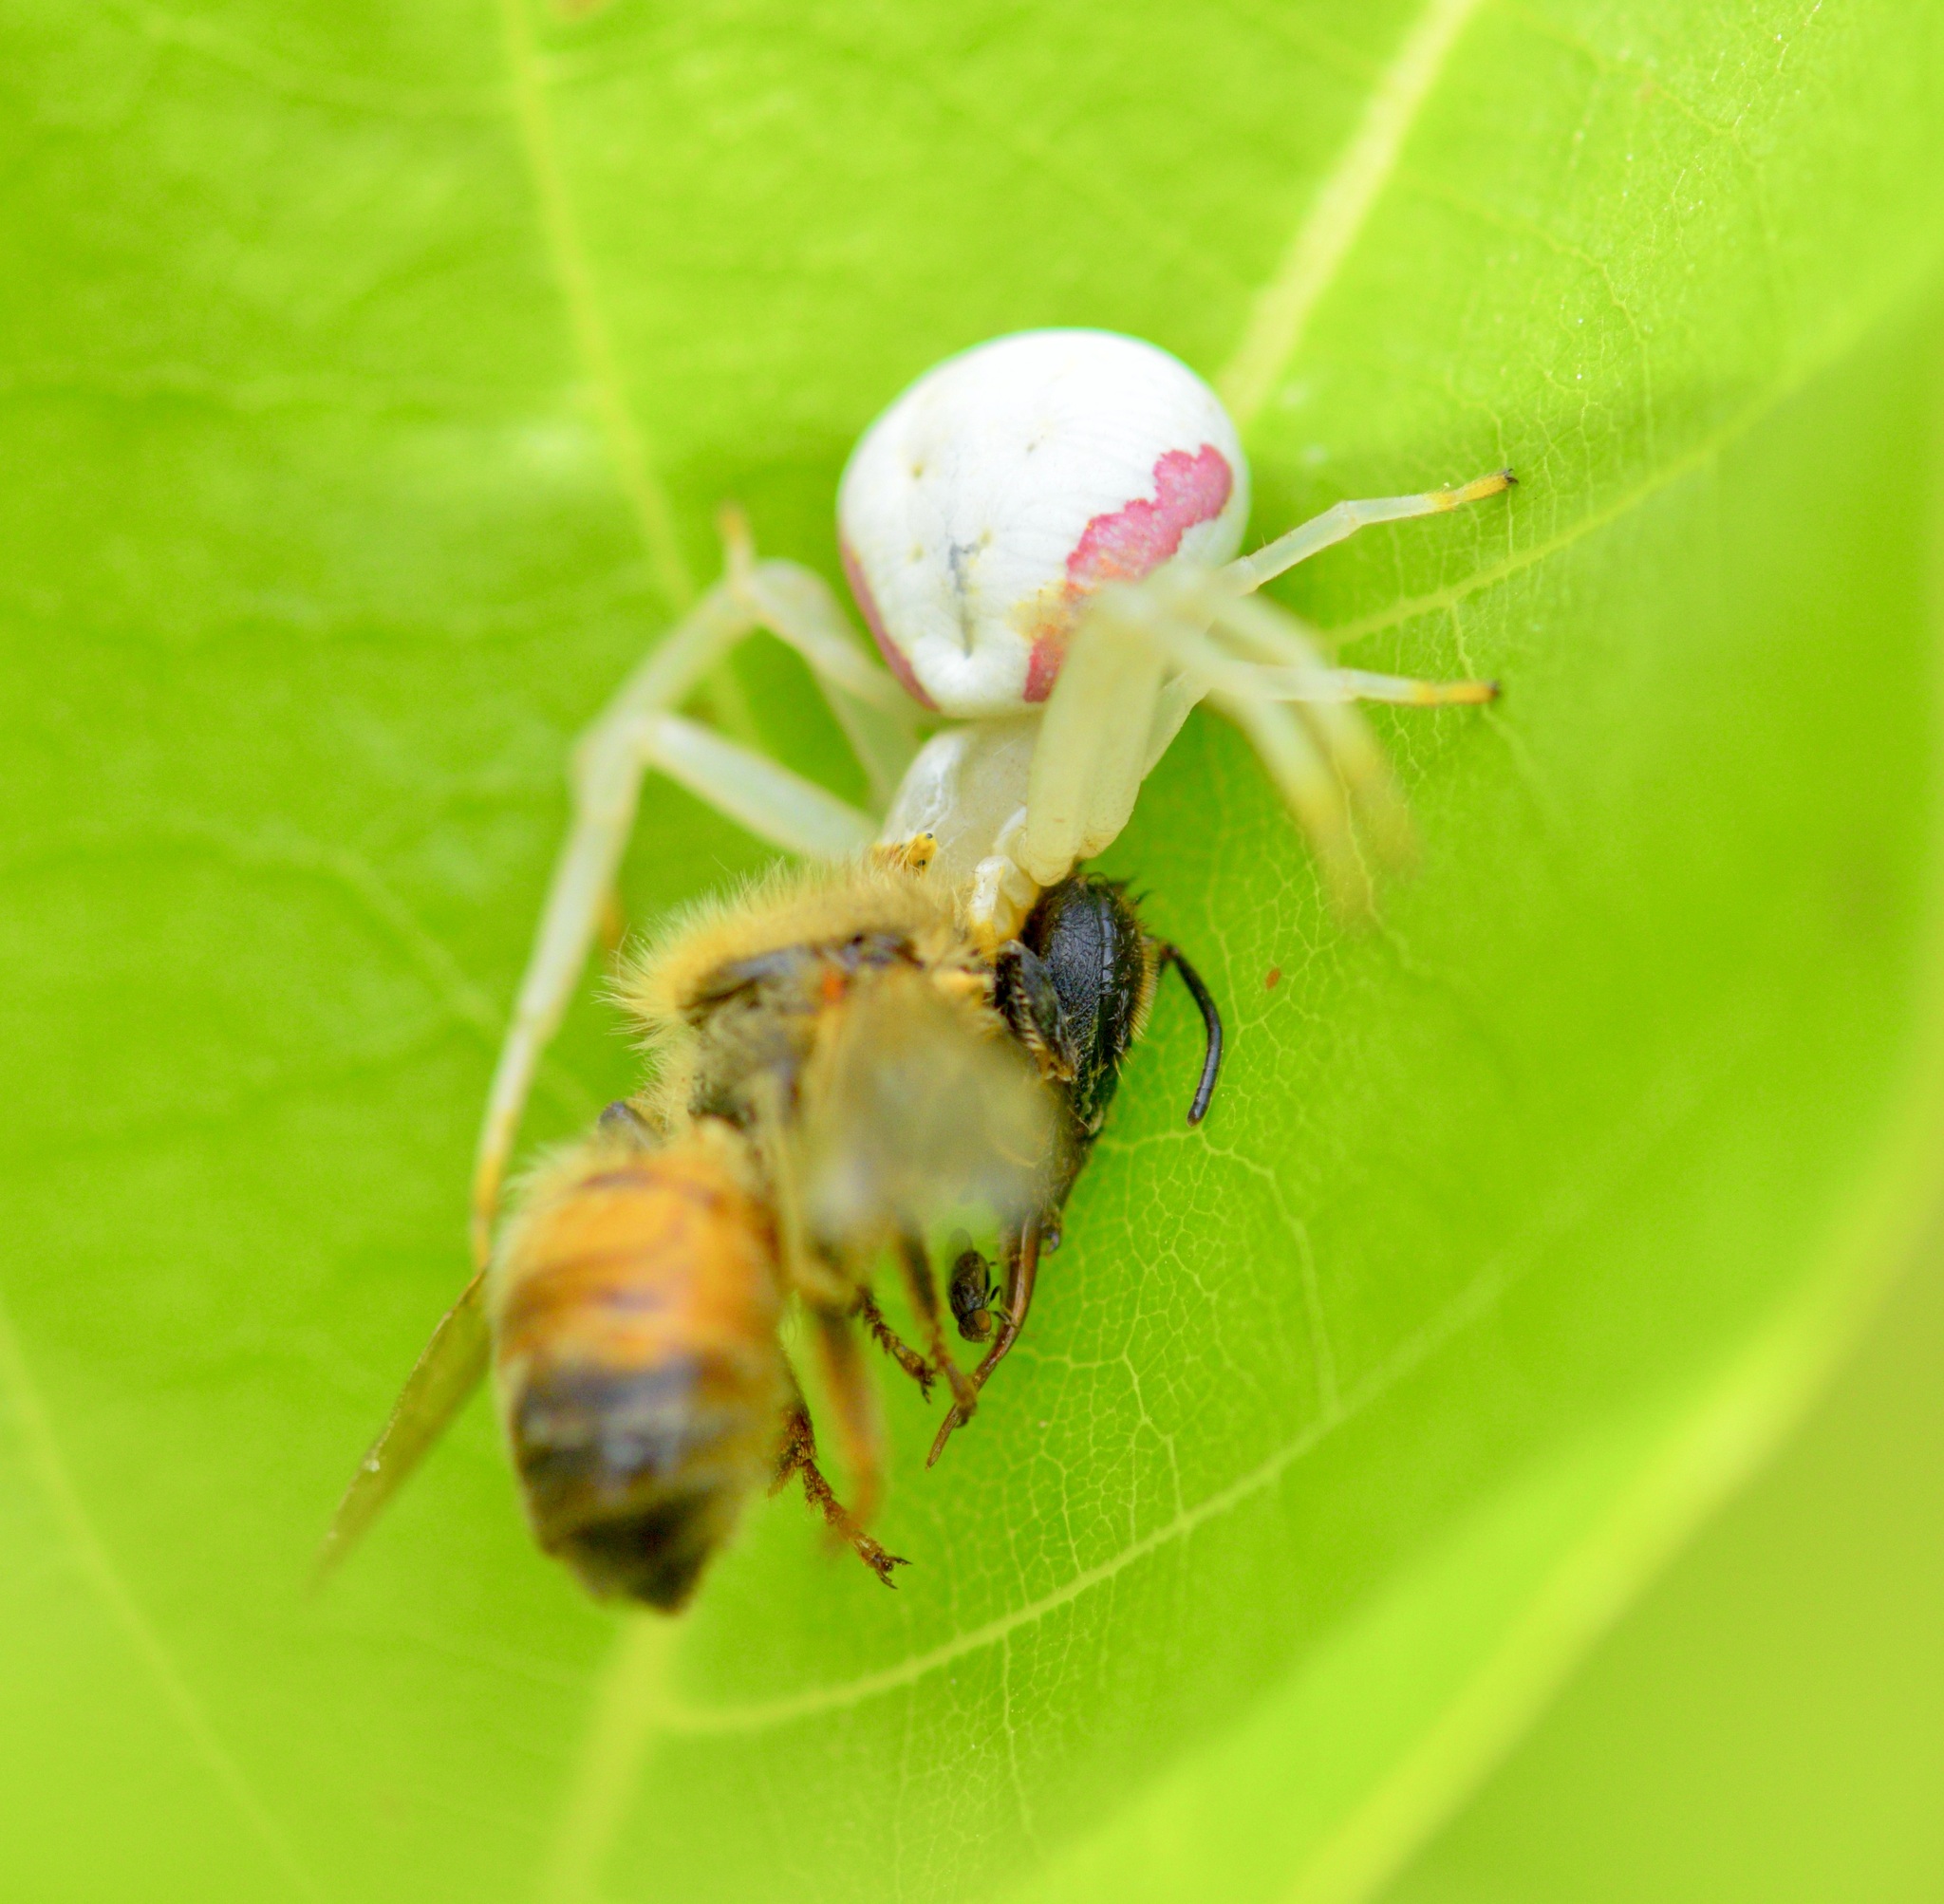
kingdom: Animalia
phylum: Arthropoda
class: Arachnida
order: Araneae
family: Thomisidae
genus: Misumena
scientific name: Misumena vatia
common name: Goldenrod crab spider
